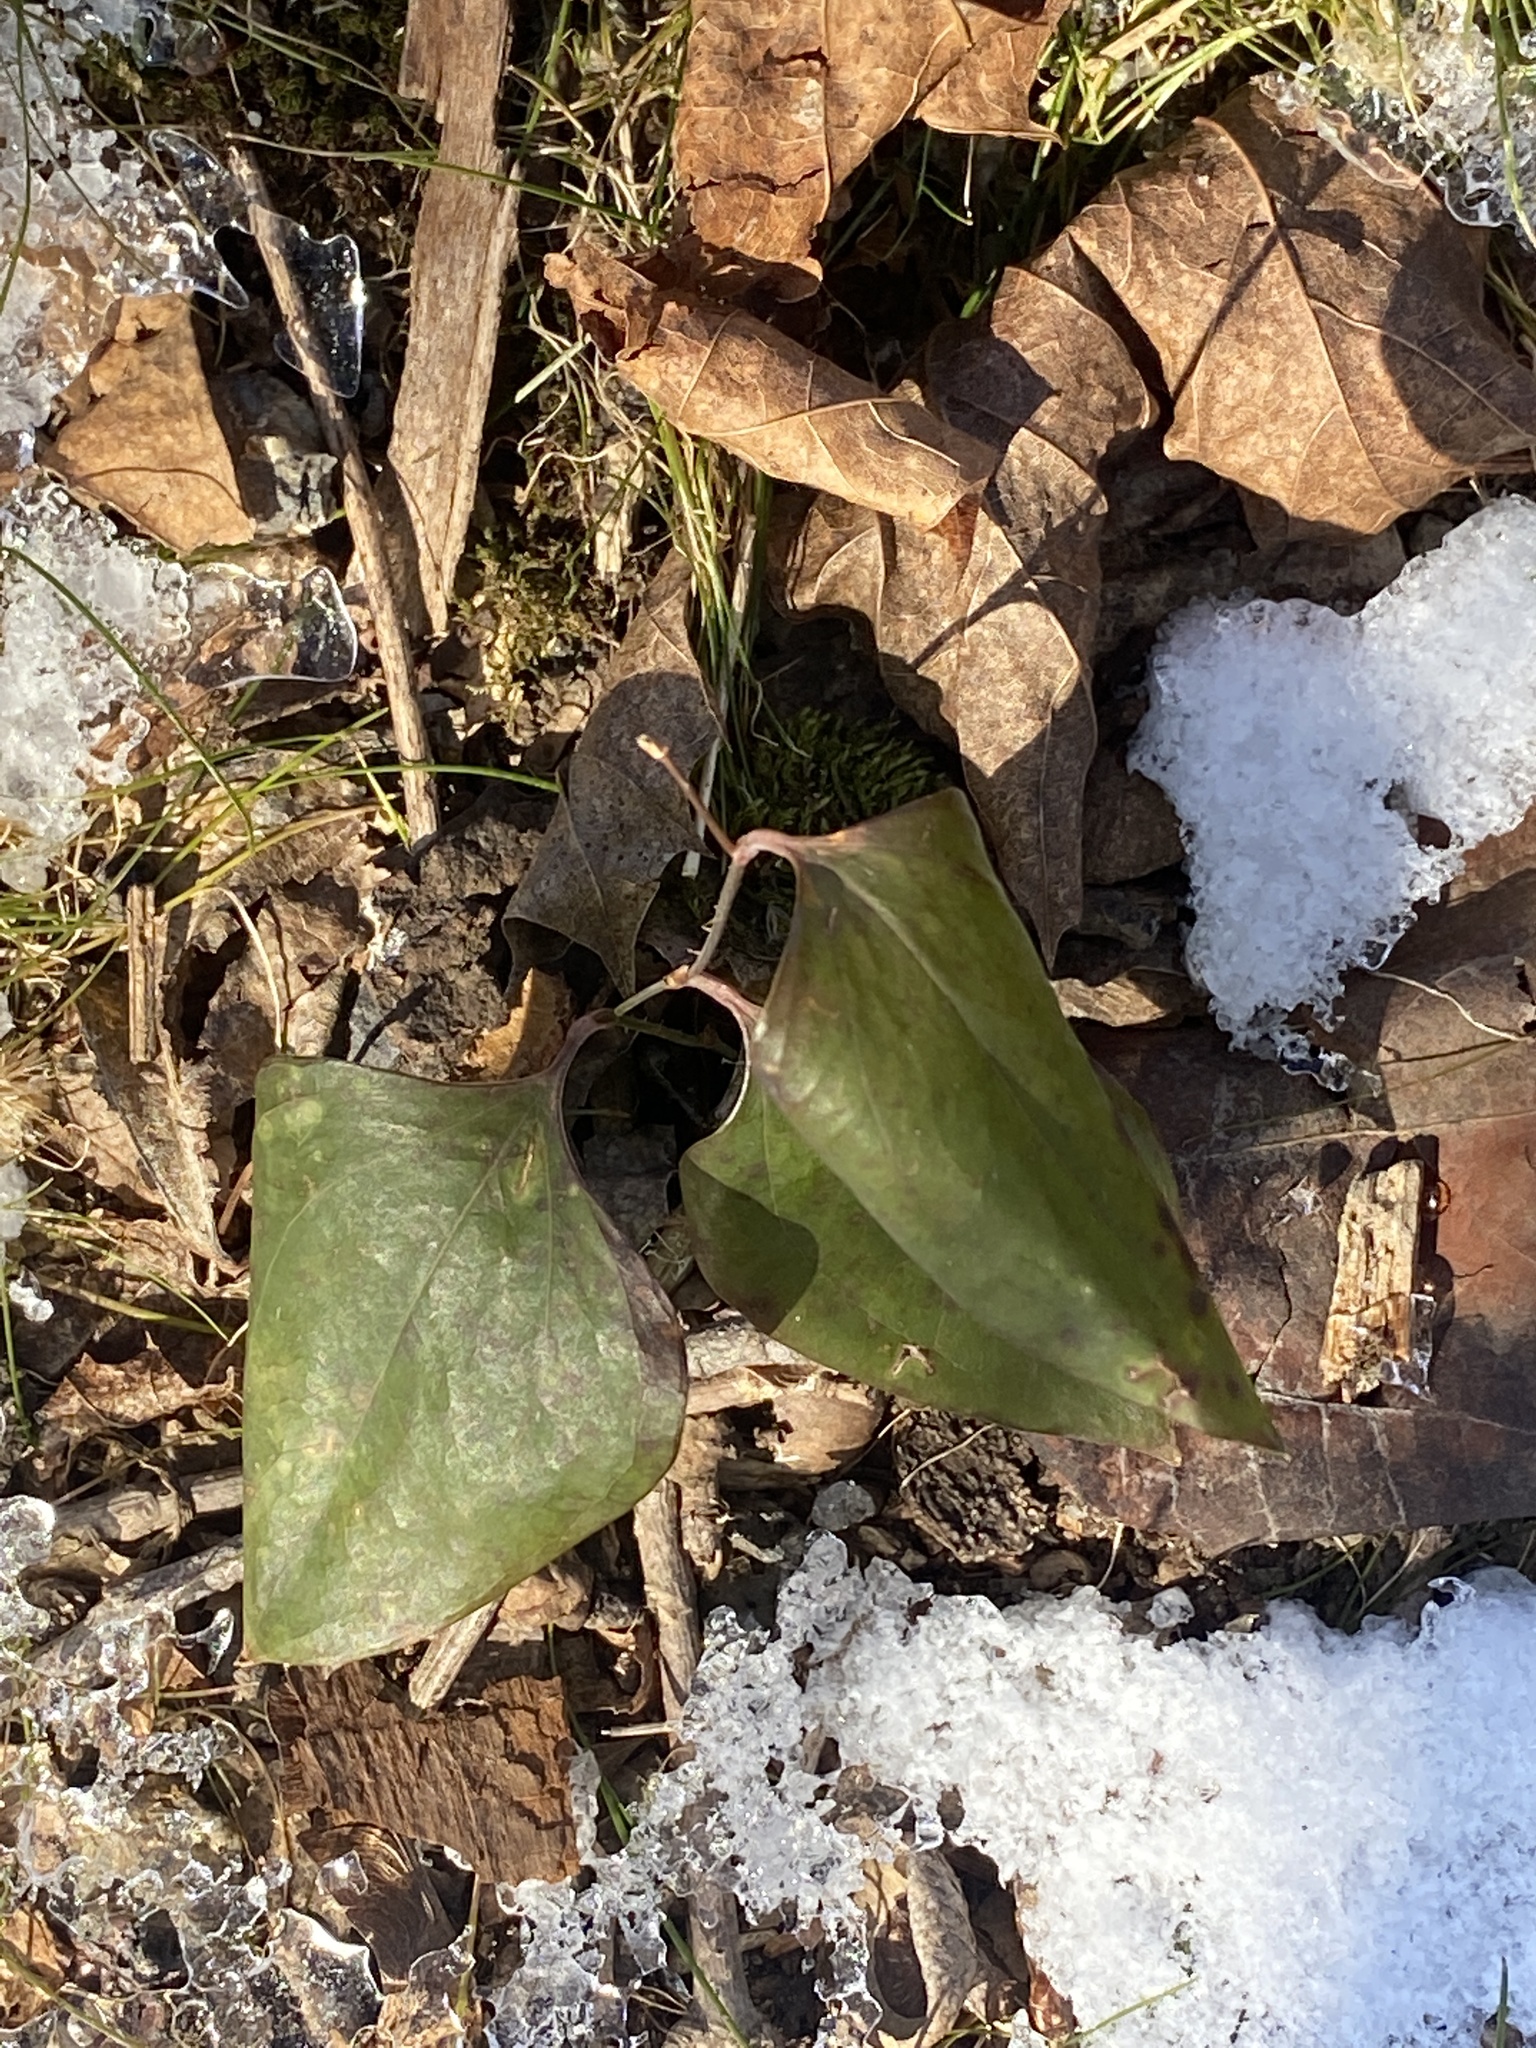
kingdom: Plantae
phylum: Tracheophyta
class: Liliopsida
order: Liliales
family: Smilacaceae
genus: Smilax
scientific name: Smilax glauca
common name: Cat greenbrier
